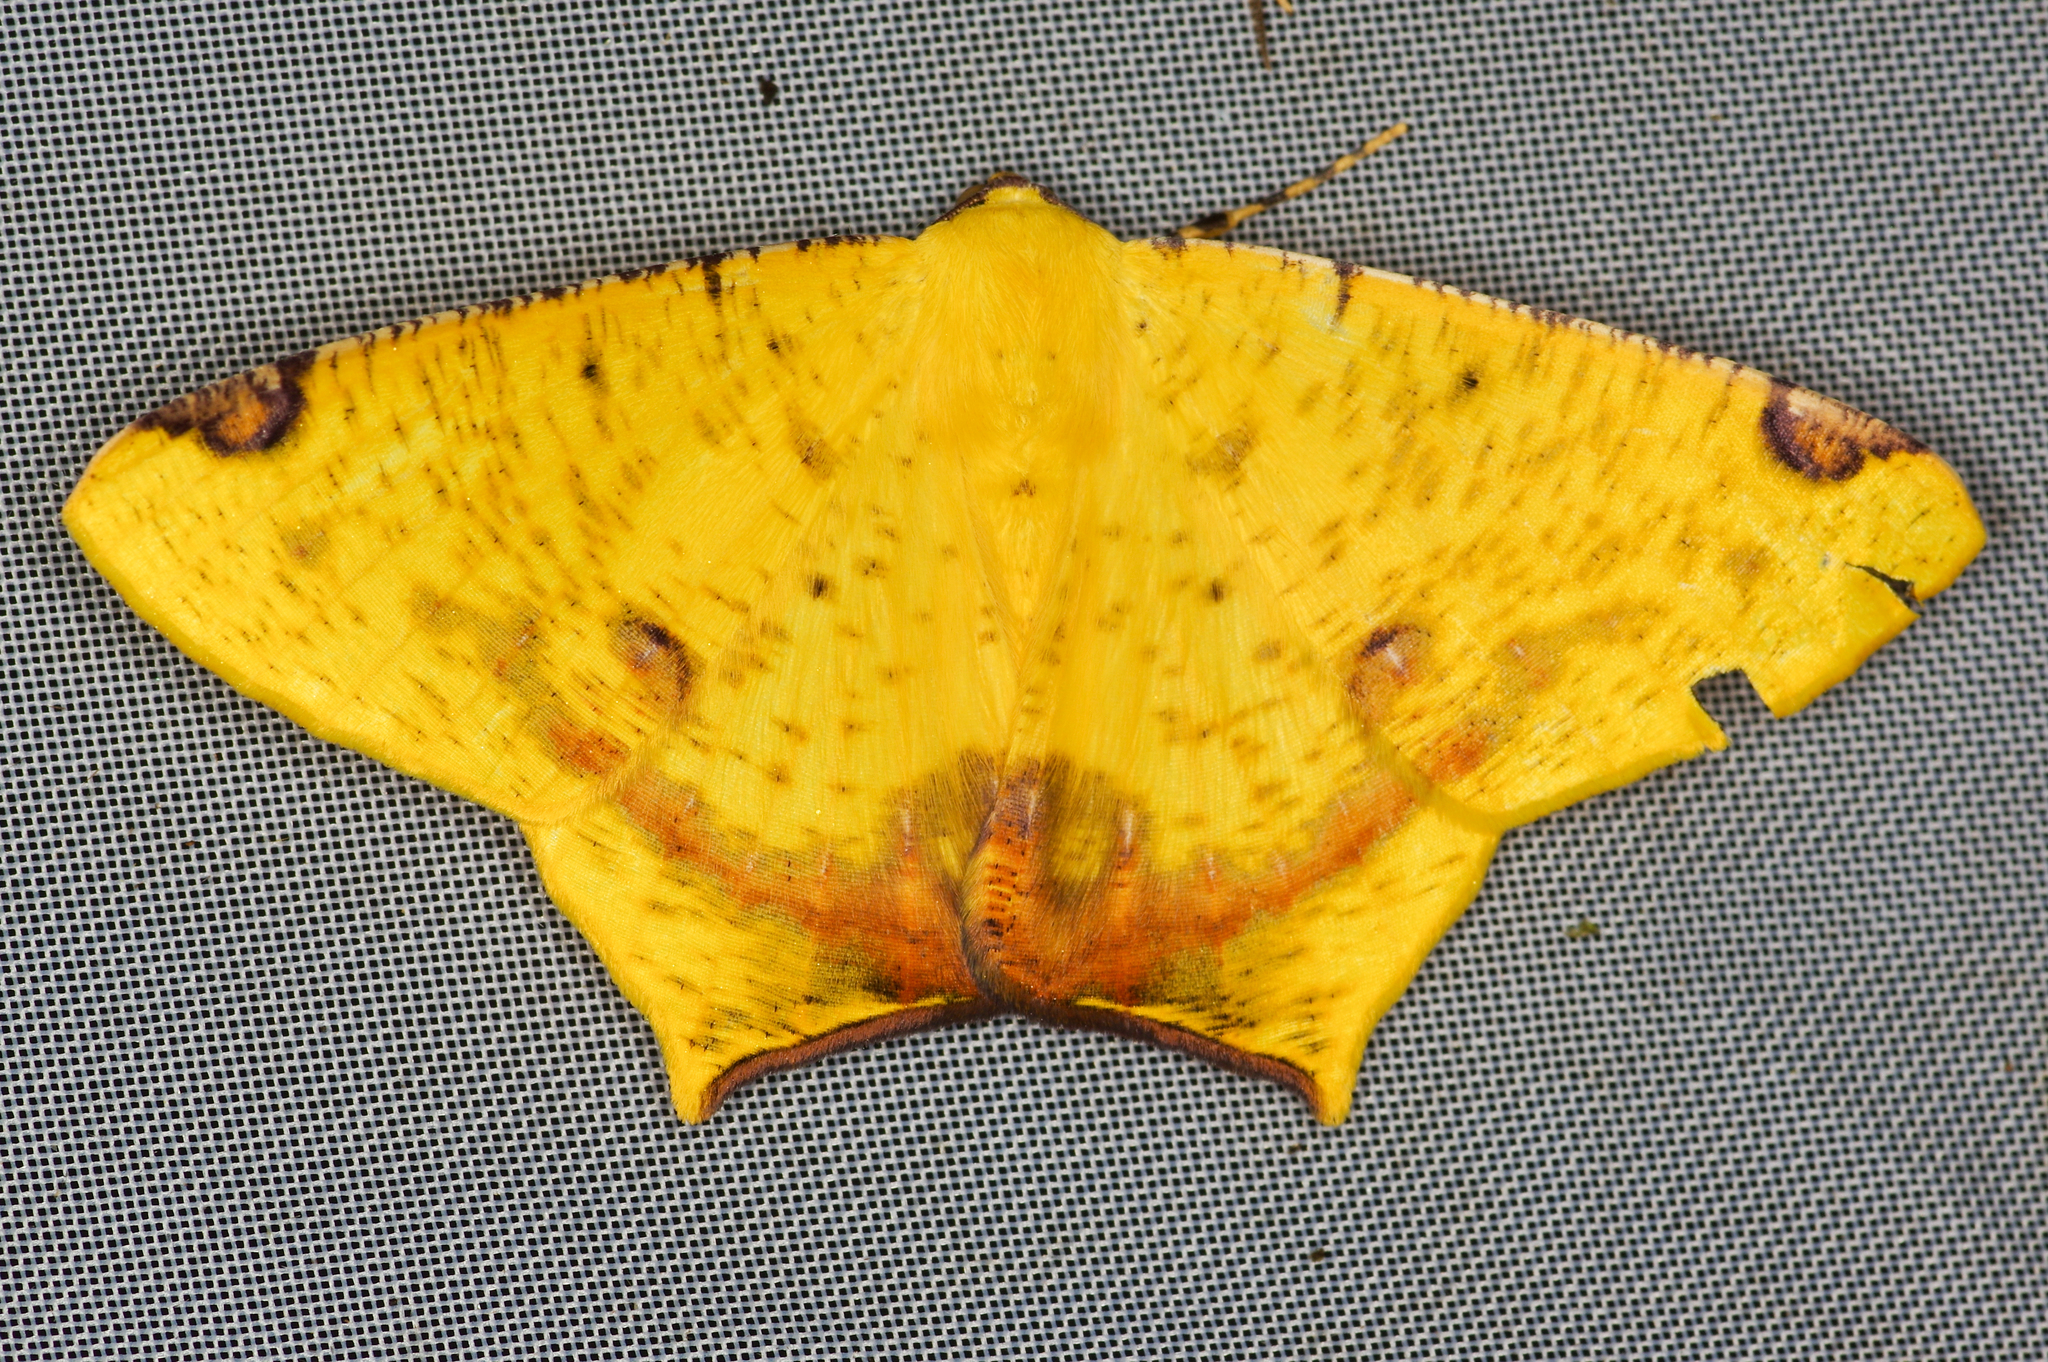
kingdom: Animalia
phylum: Arthropoda
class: Insecta
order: Lepidoptera
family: Geometridae
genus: Nepheloleuca
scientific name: Nepheloleuca politia
